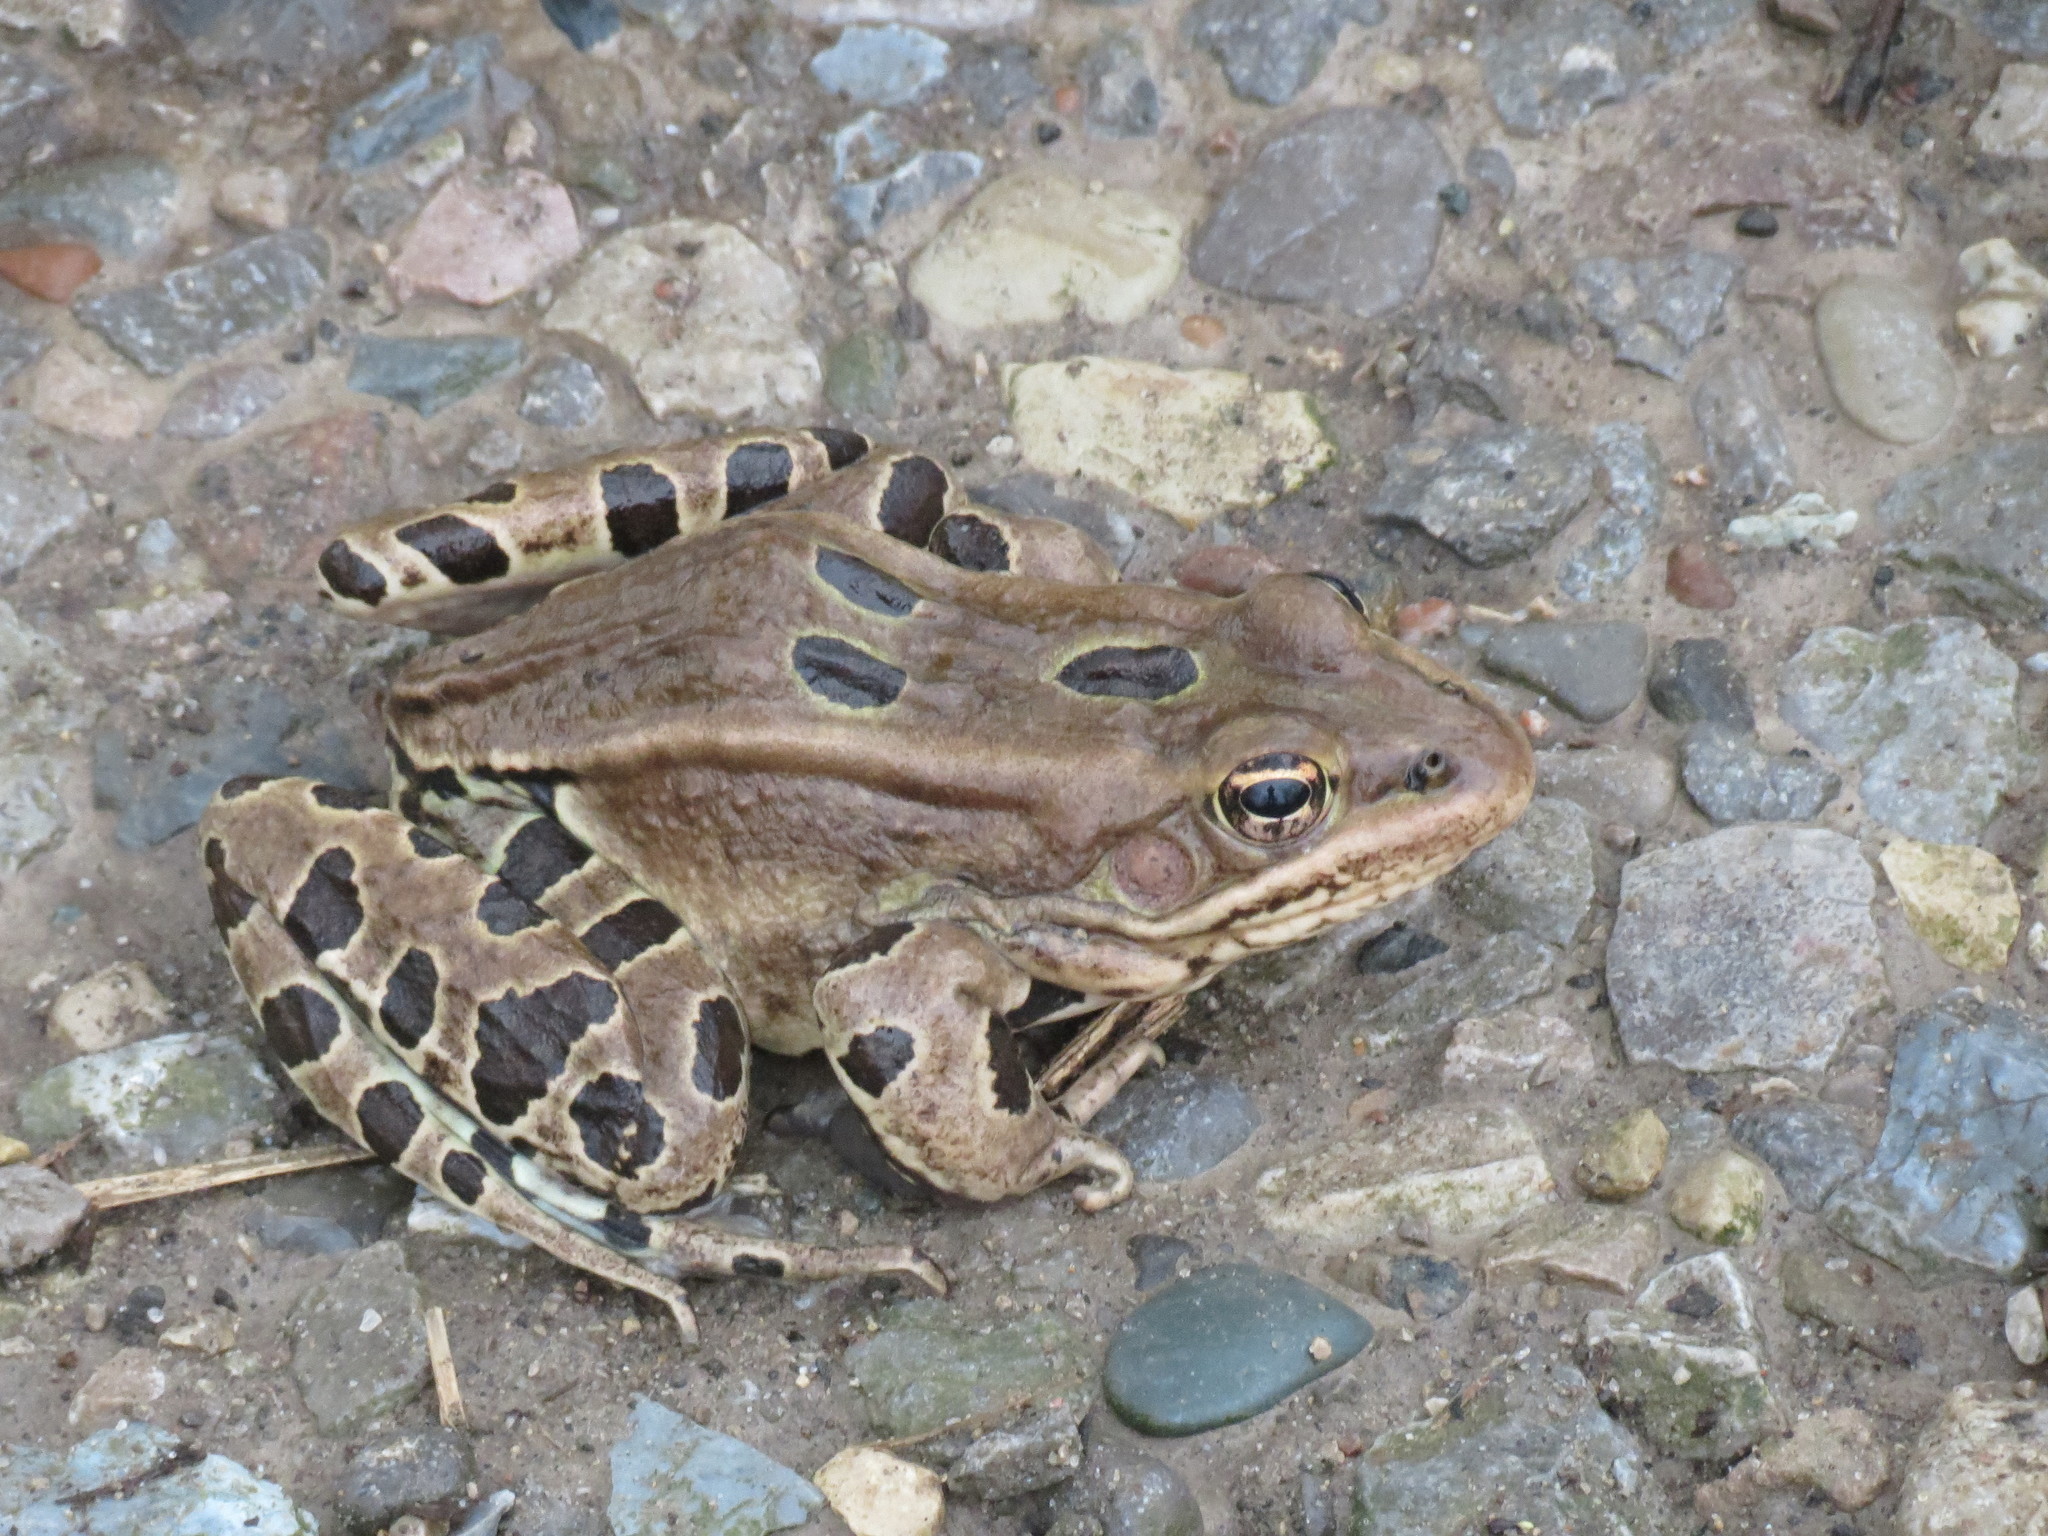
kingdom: Animalia
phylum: Chordata
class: Amphibia
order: Anura
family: Ranidae
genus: Lithobates
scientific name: Lithobates pipiens
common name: Northern leopard frog
